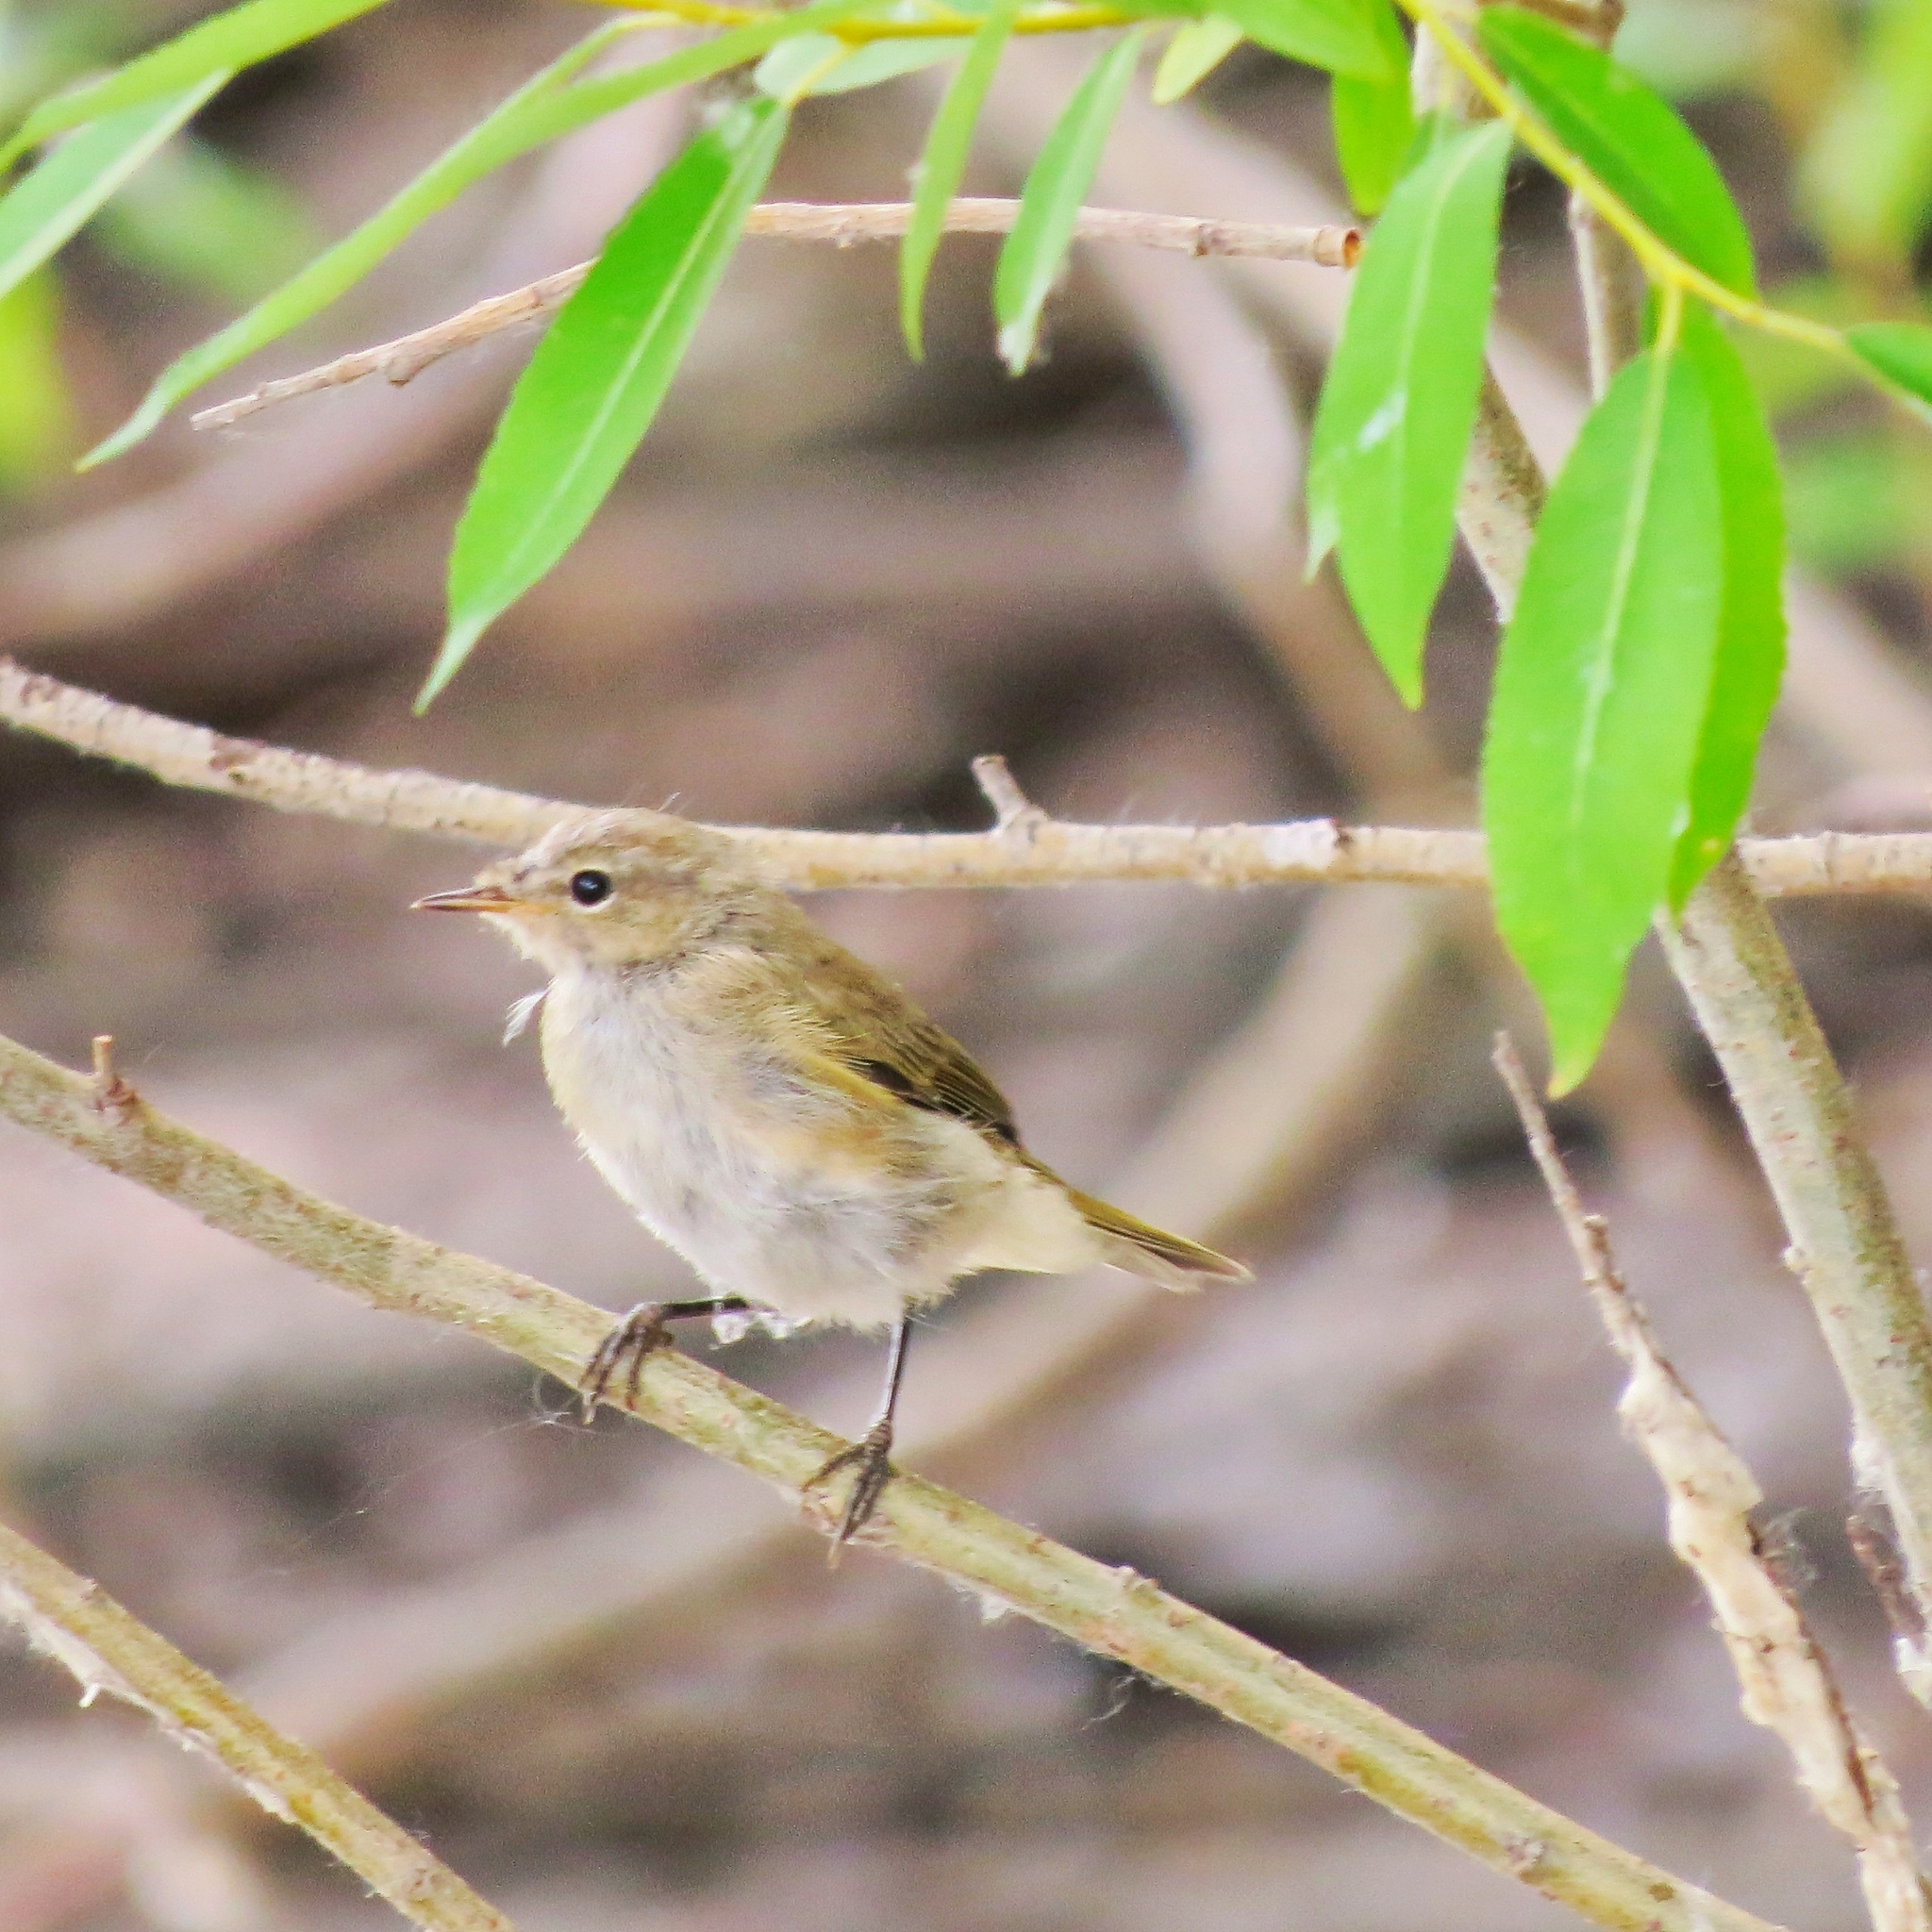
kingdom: Animalia
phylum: Chordata
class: Aves
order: Passeriformes
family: Phylloscopidae
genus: Phylloscopus
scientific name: Phylloscopus collybita
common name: Common chiffchaff
